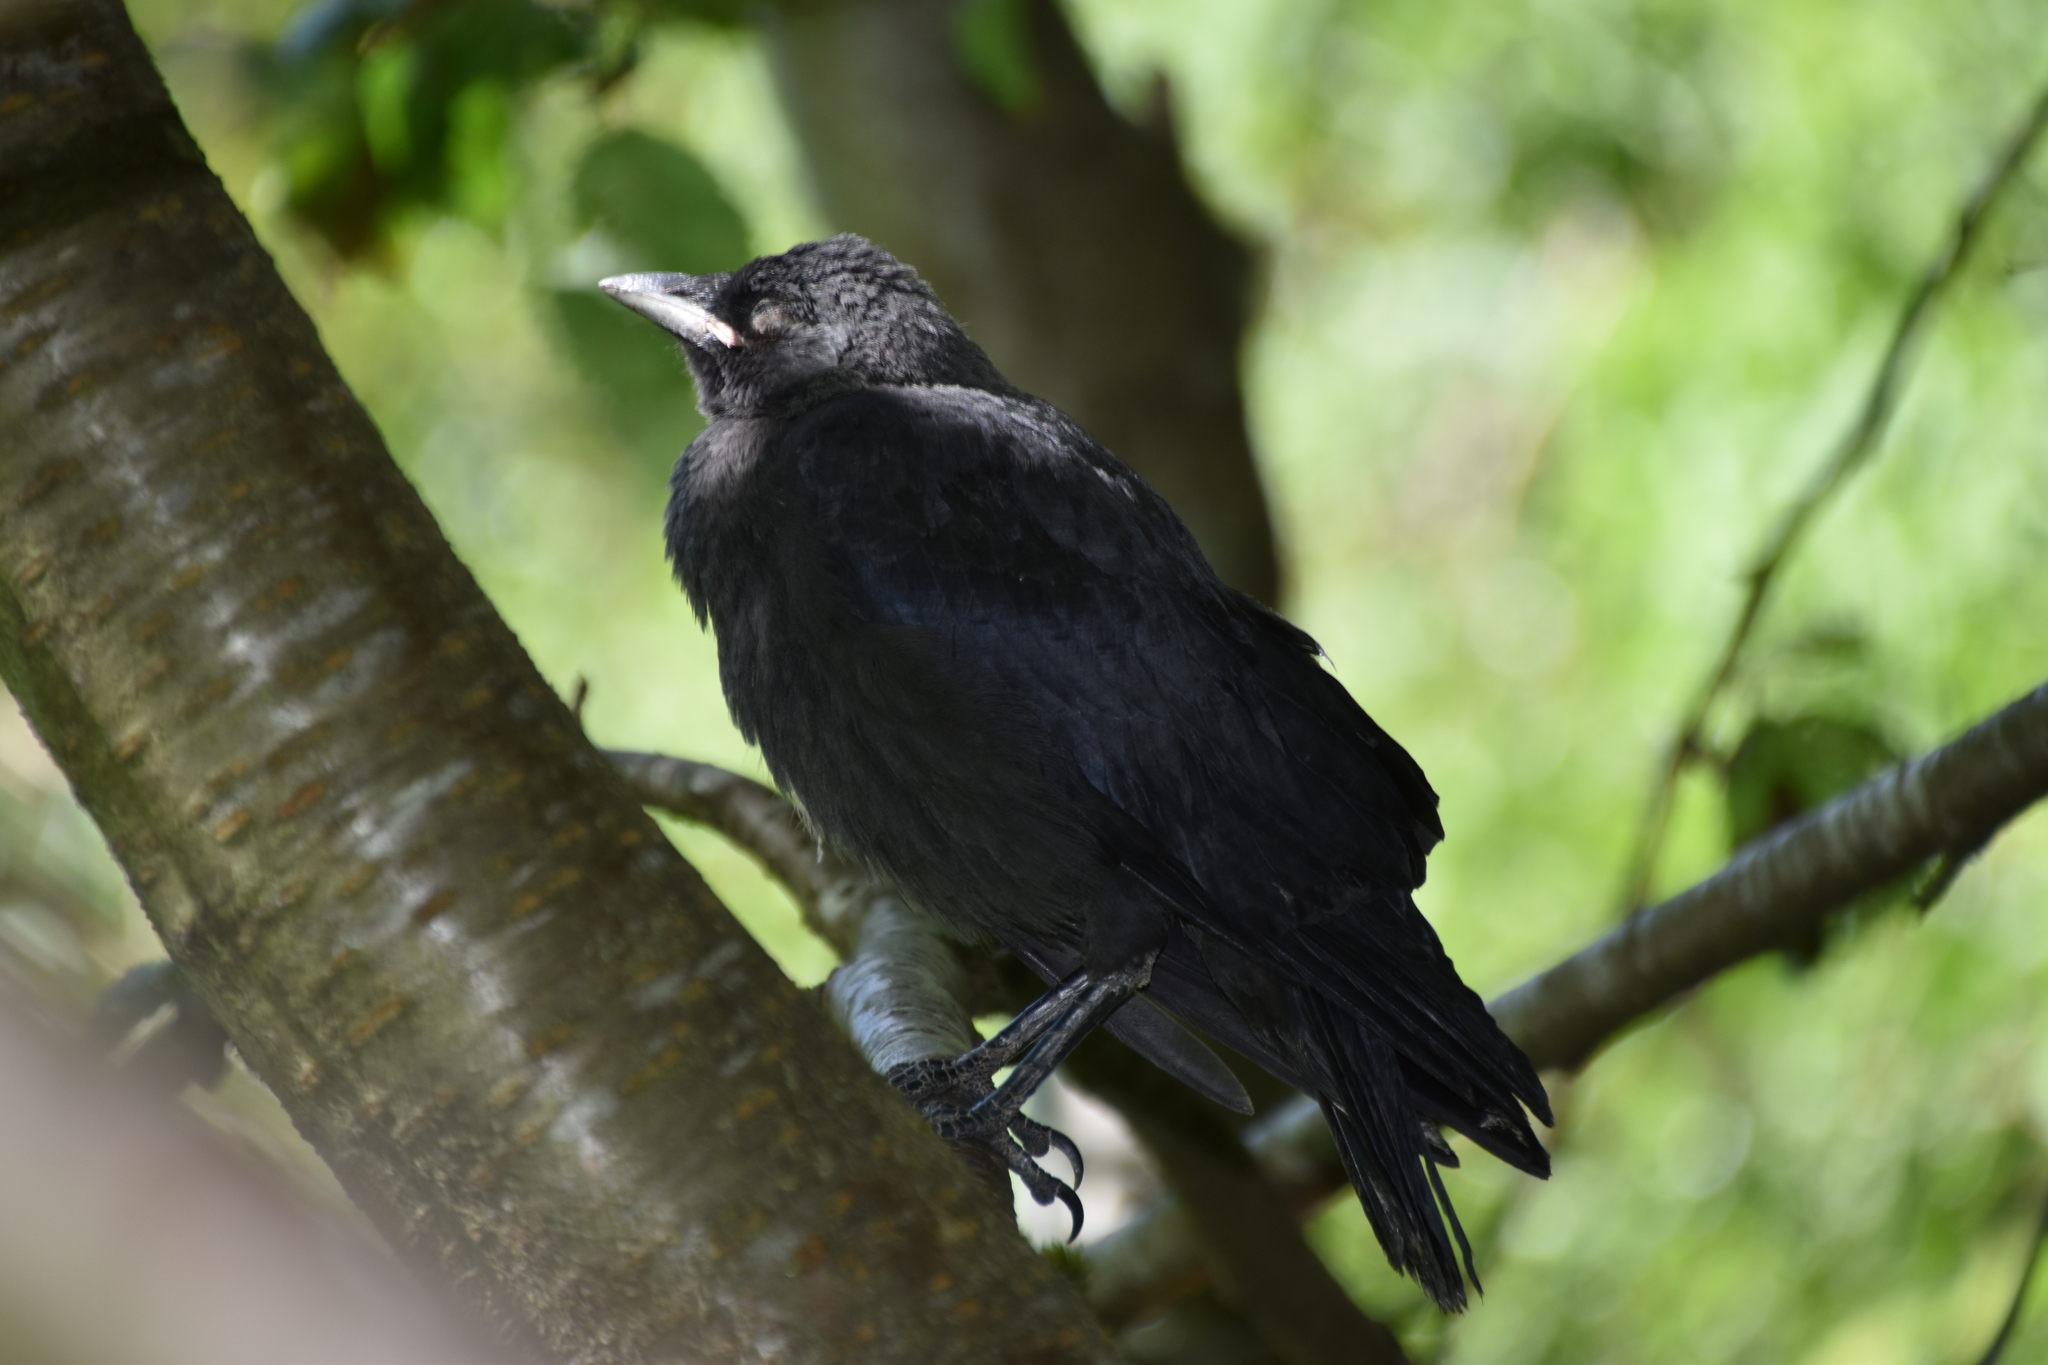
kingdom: Animalia
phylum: Chordata
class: Aves
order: Passeriformes
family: Corvidae
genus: Coloeus
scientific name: Coloeus monedula
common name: Western jackdaw
